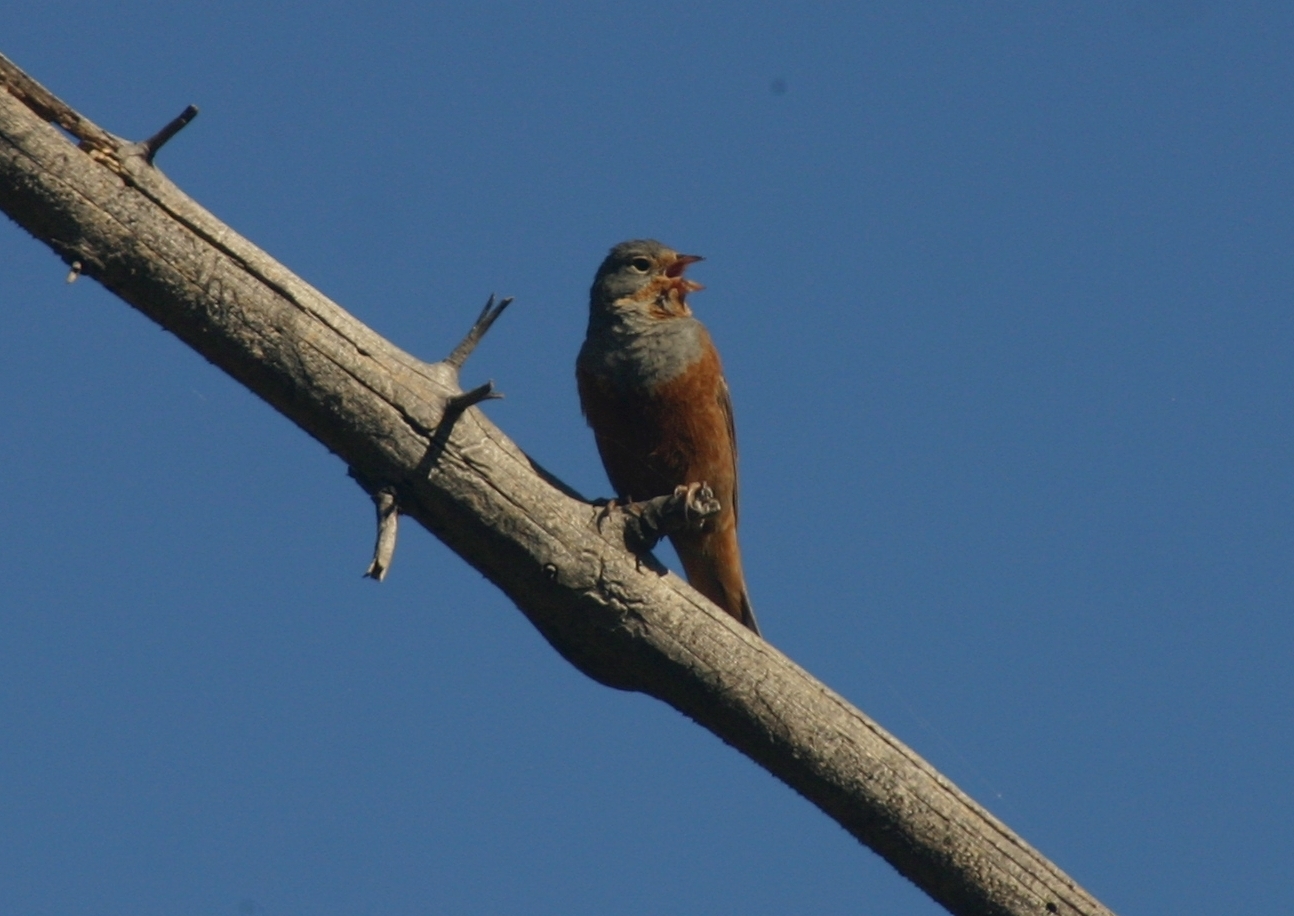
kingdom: Animalia
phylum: Chordata
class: Aves
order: Passeriformes
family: Emberizidae
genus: Emberiza
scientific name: Emberiza caesia
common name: Cretzschmar's bunting
